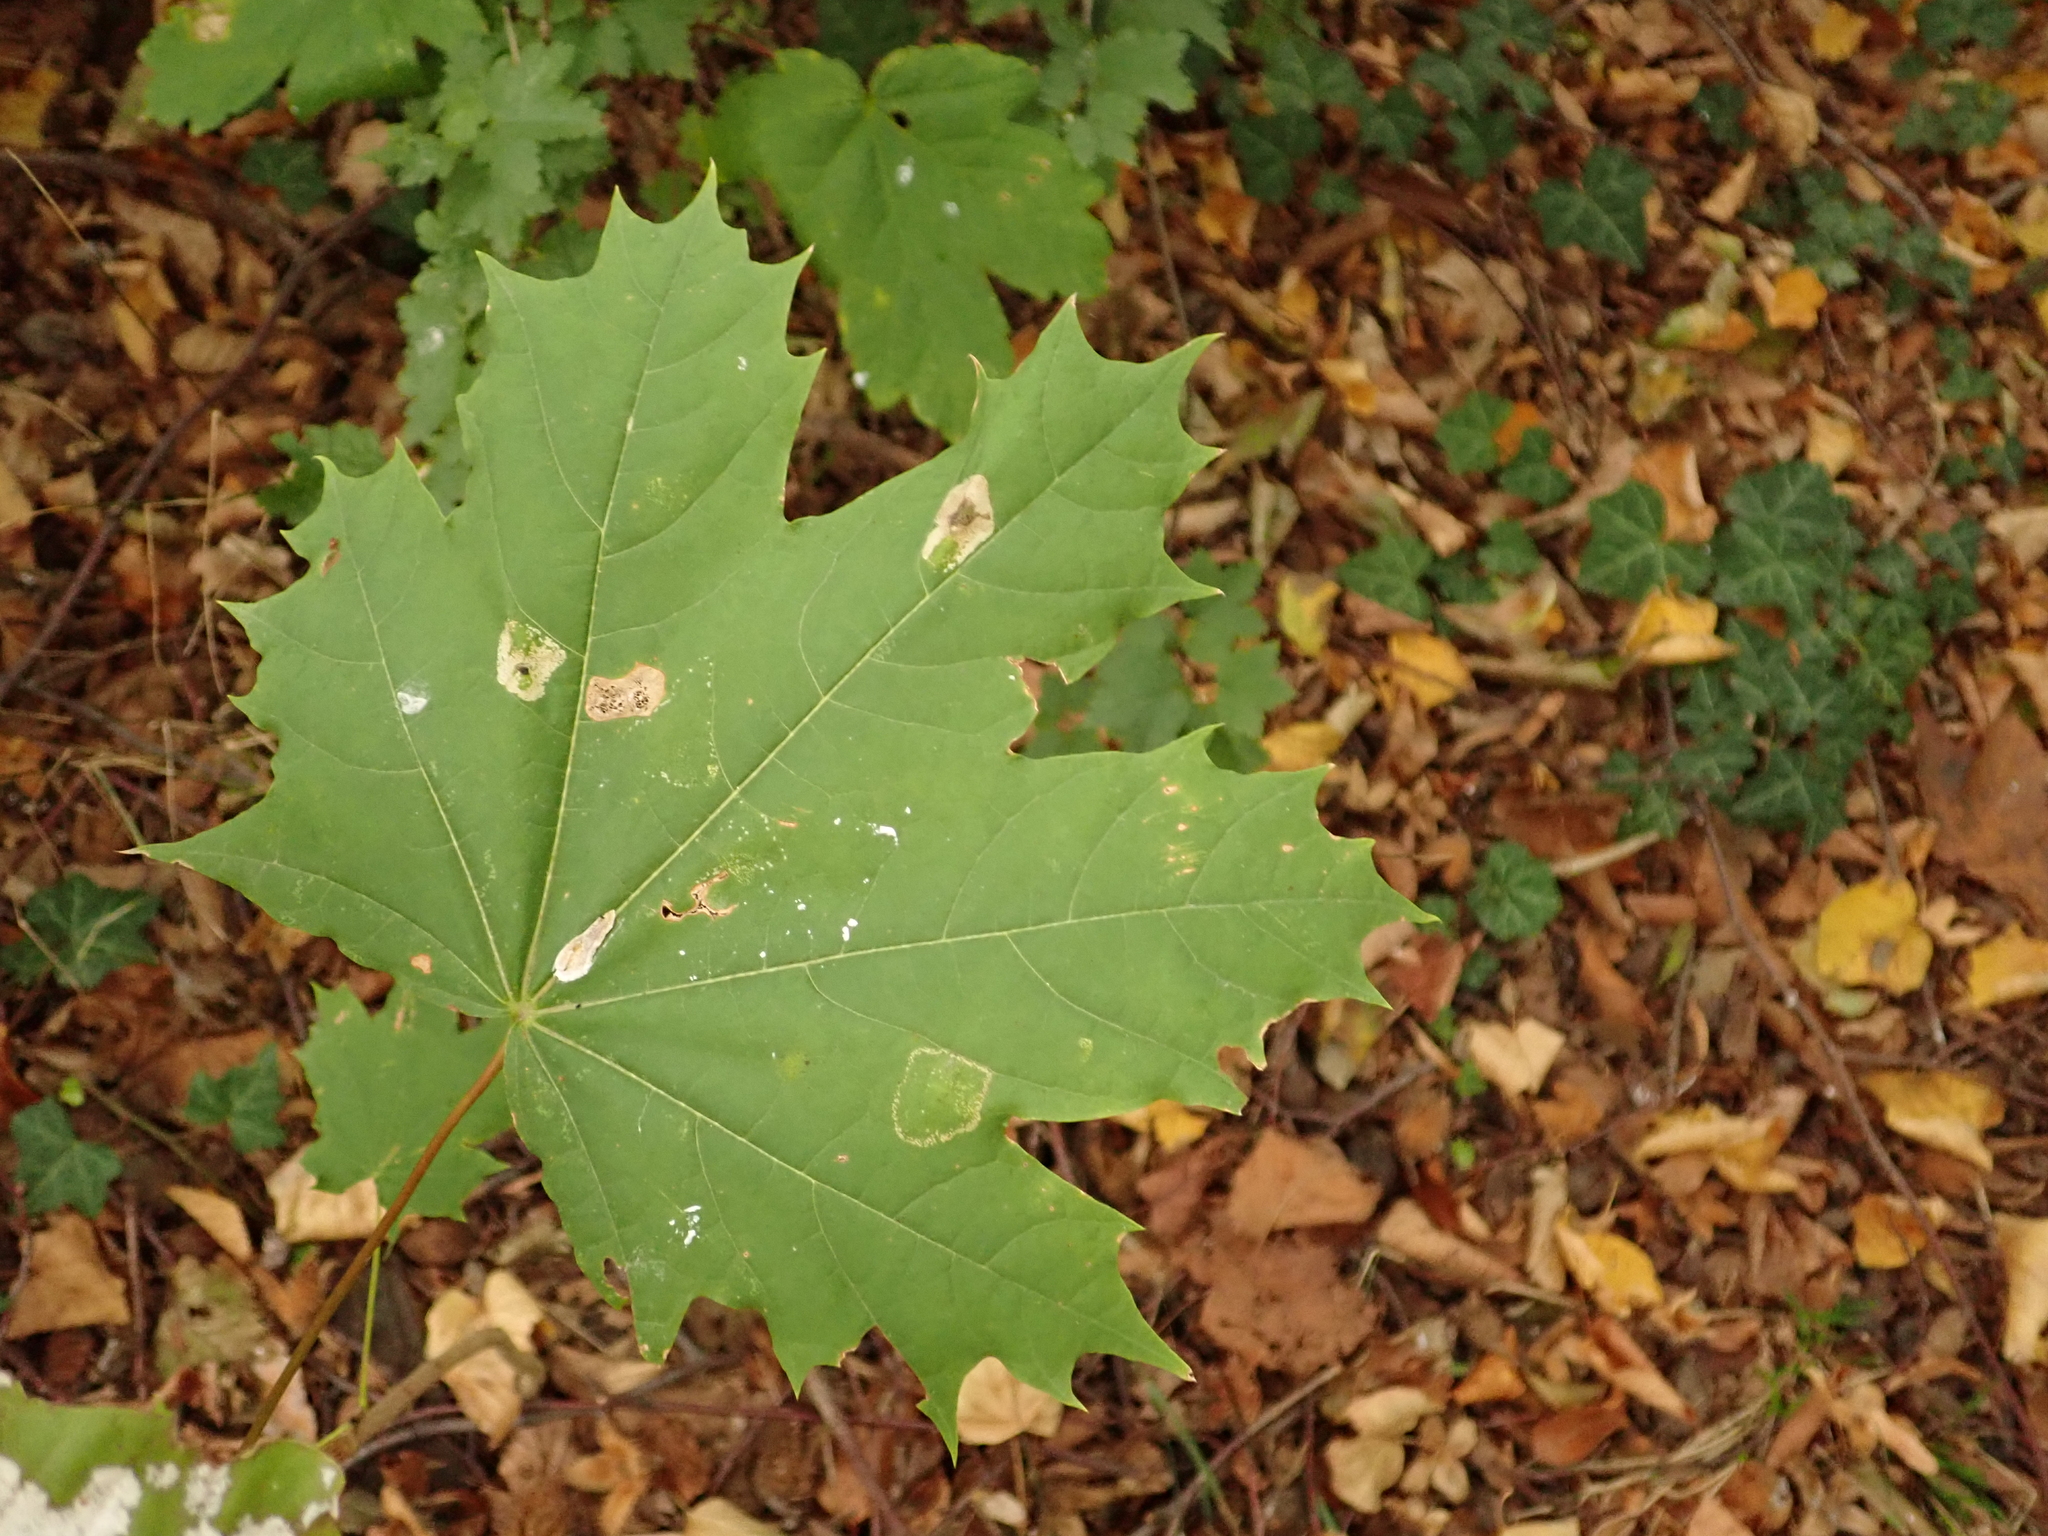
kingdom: Plantae
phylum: Tracheophyta
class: Magnoliopsida
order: Sapindales
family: Sapindaceae
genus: Acer
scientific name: Acer platanoides
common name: Norway maple
